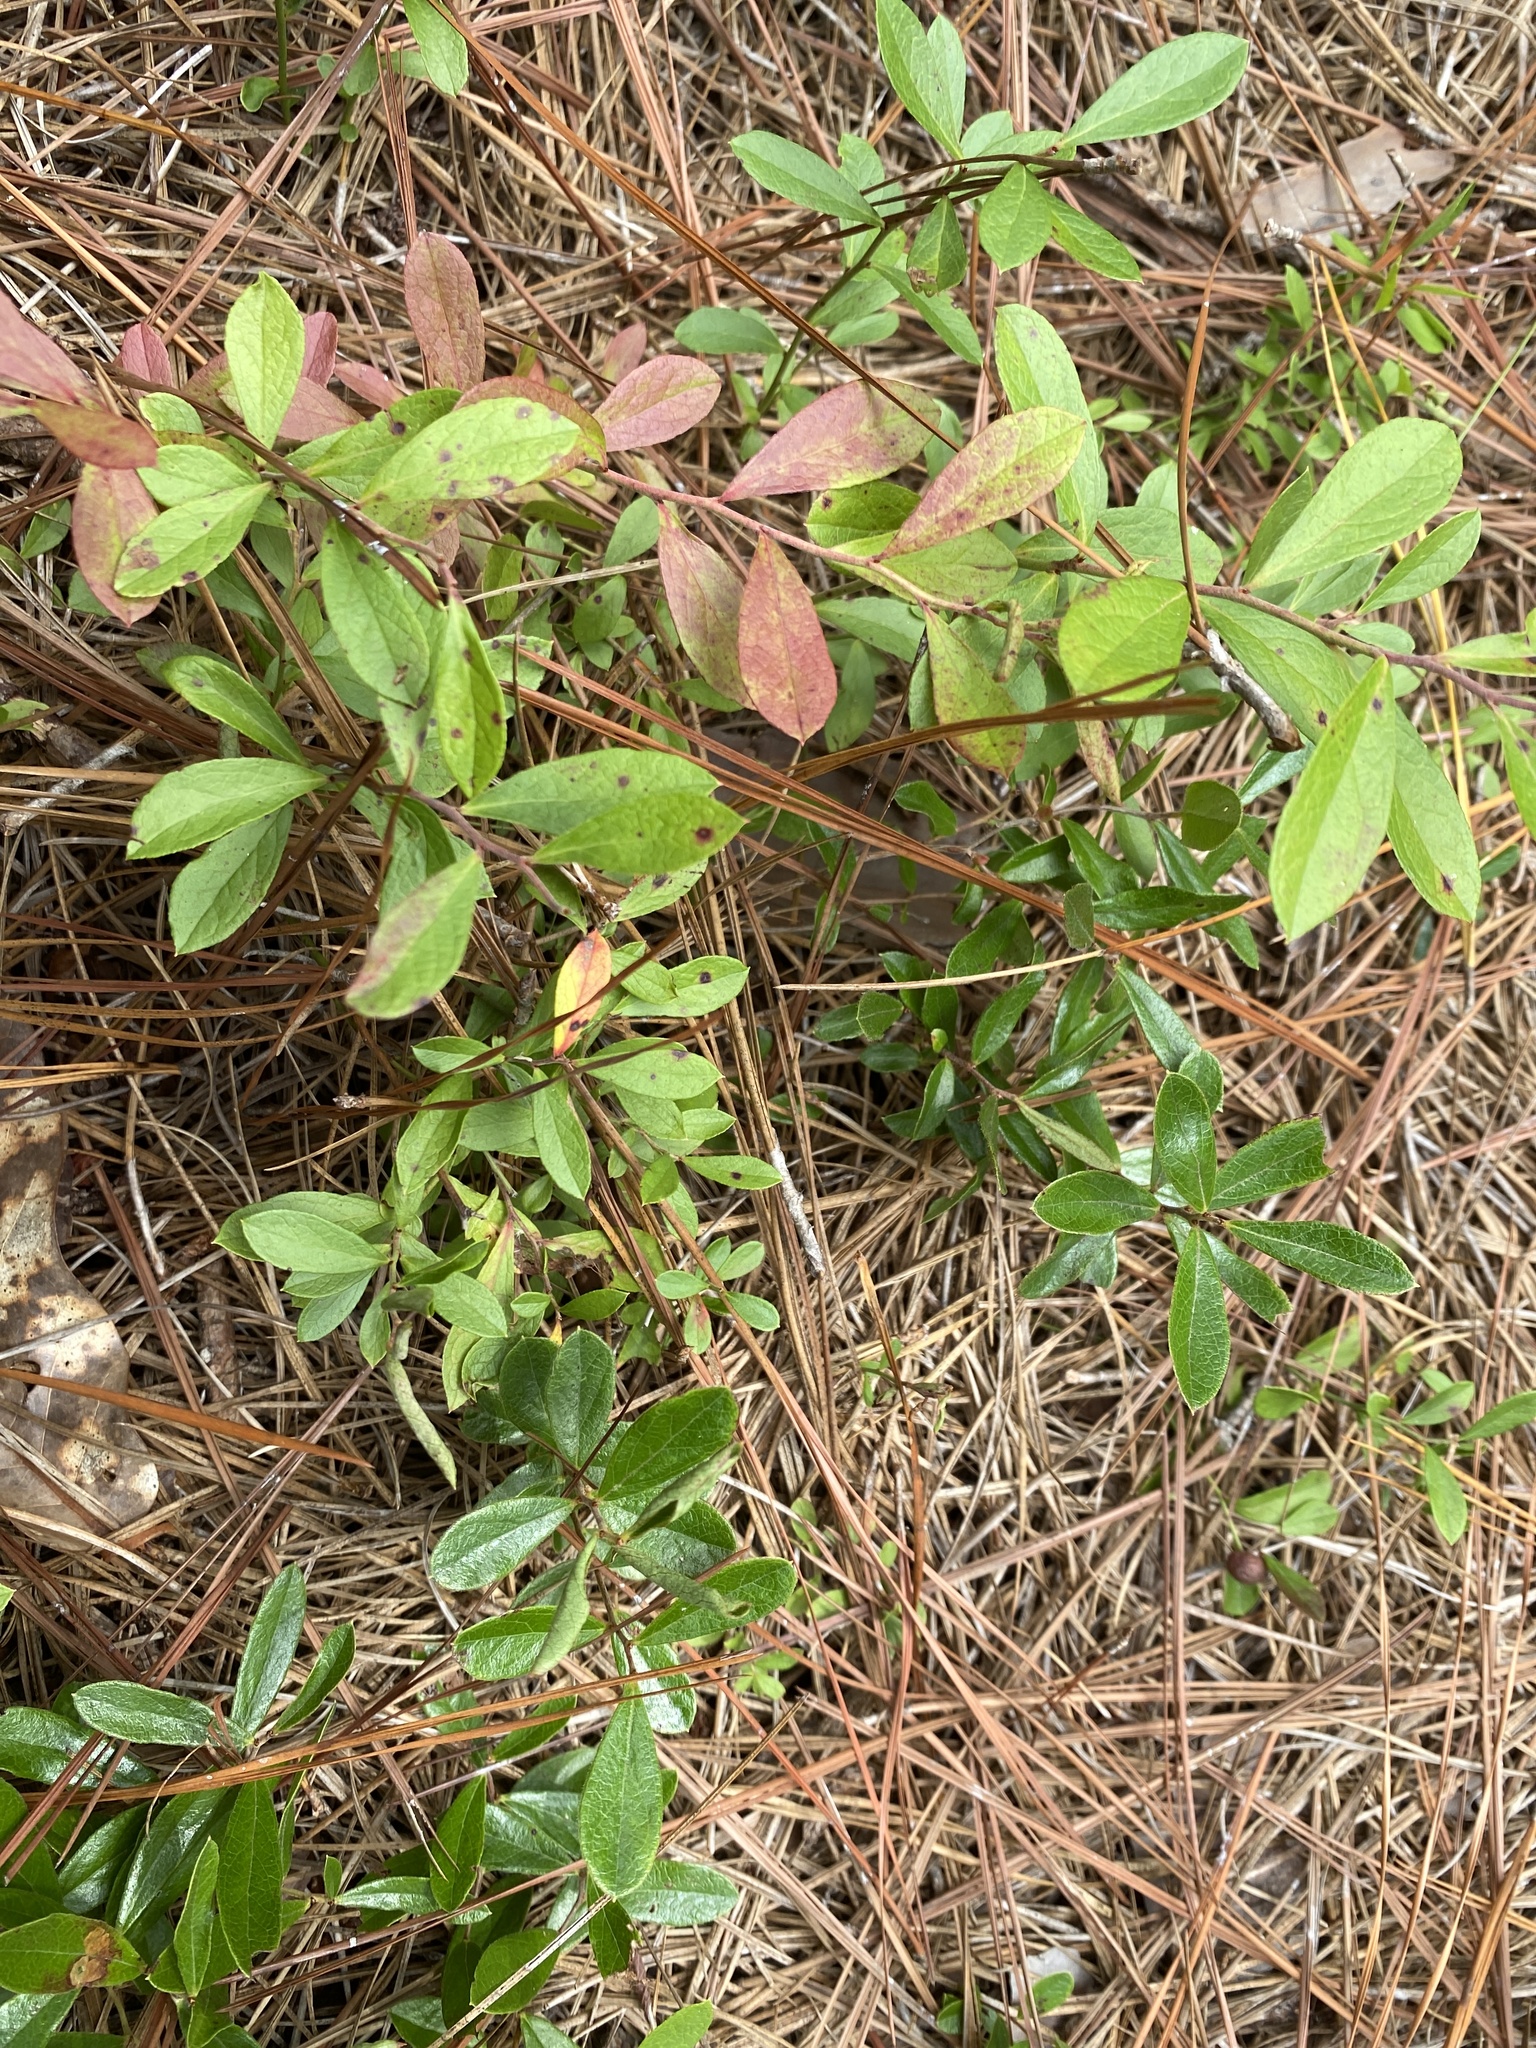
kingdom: Plantae
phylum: Tracheophyta
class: Magnoliopsida
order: Ericales
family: Ericaceae
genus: Gaylussacia
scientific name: Gaylussacia dumosa
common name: Dwarf huckleberry
